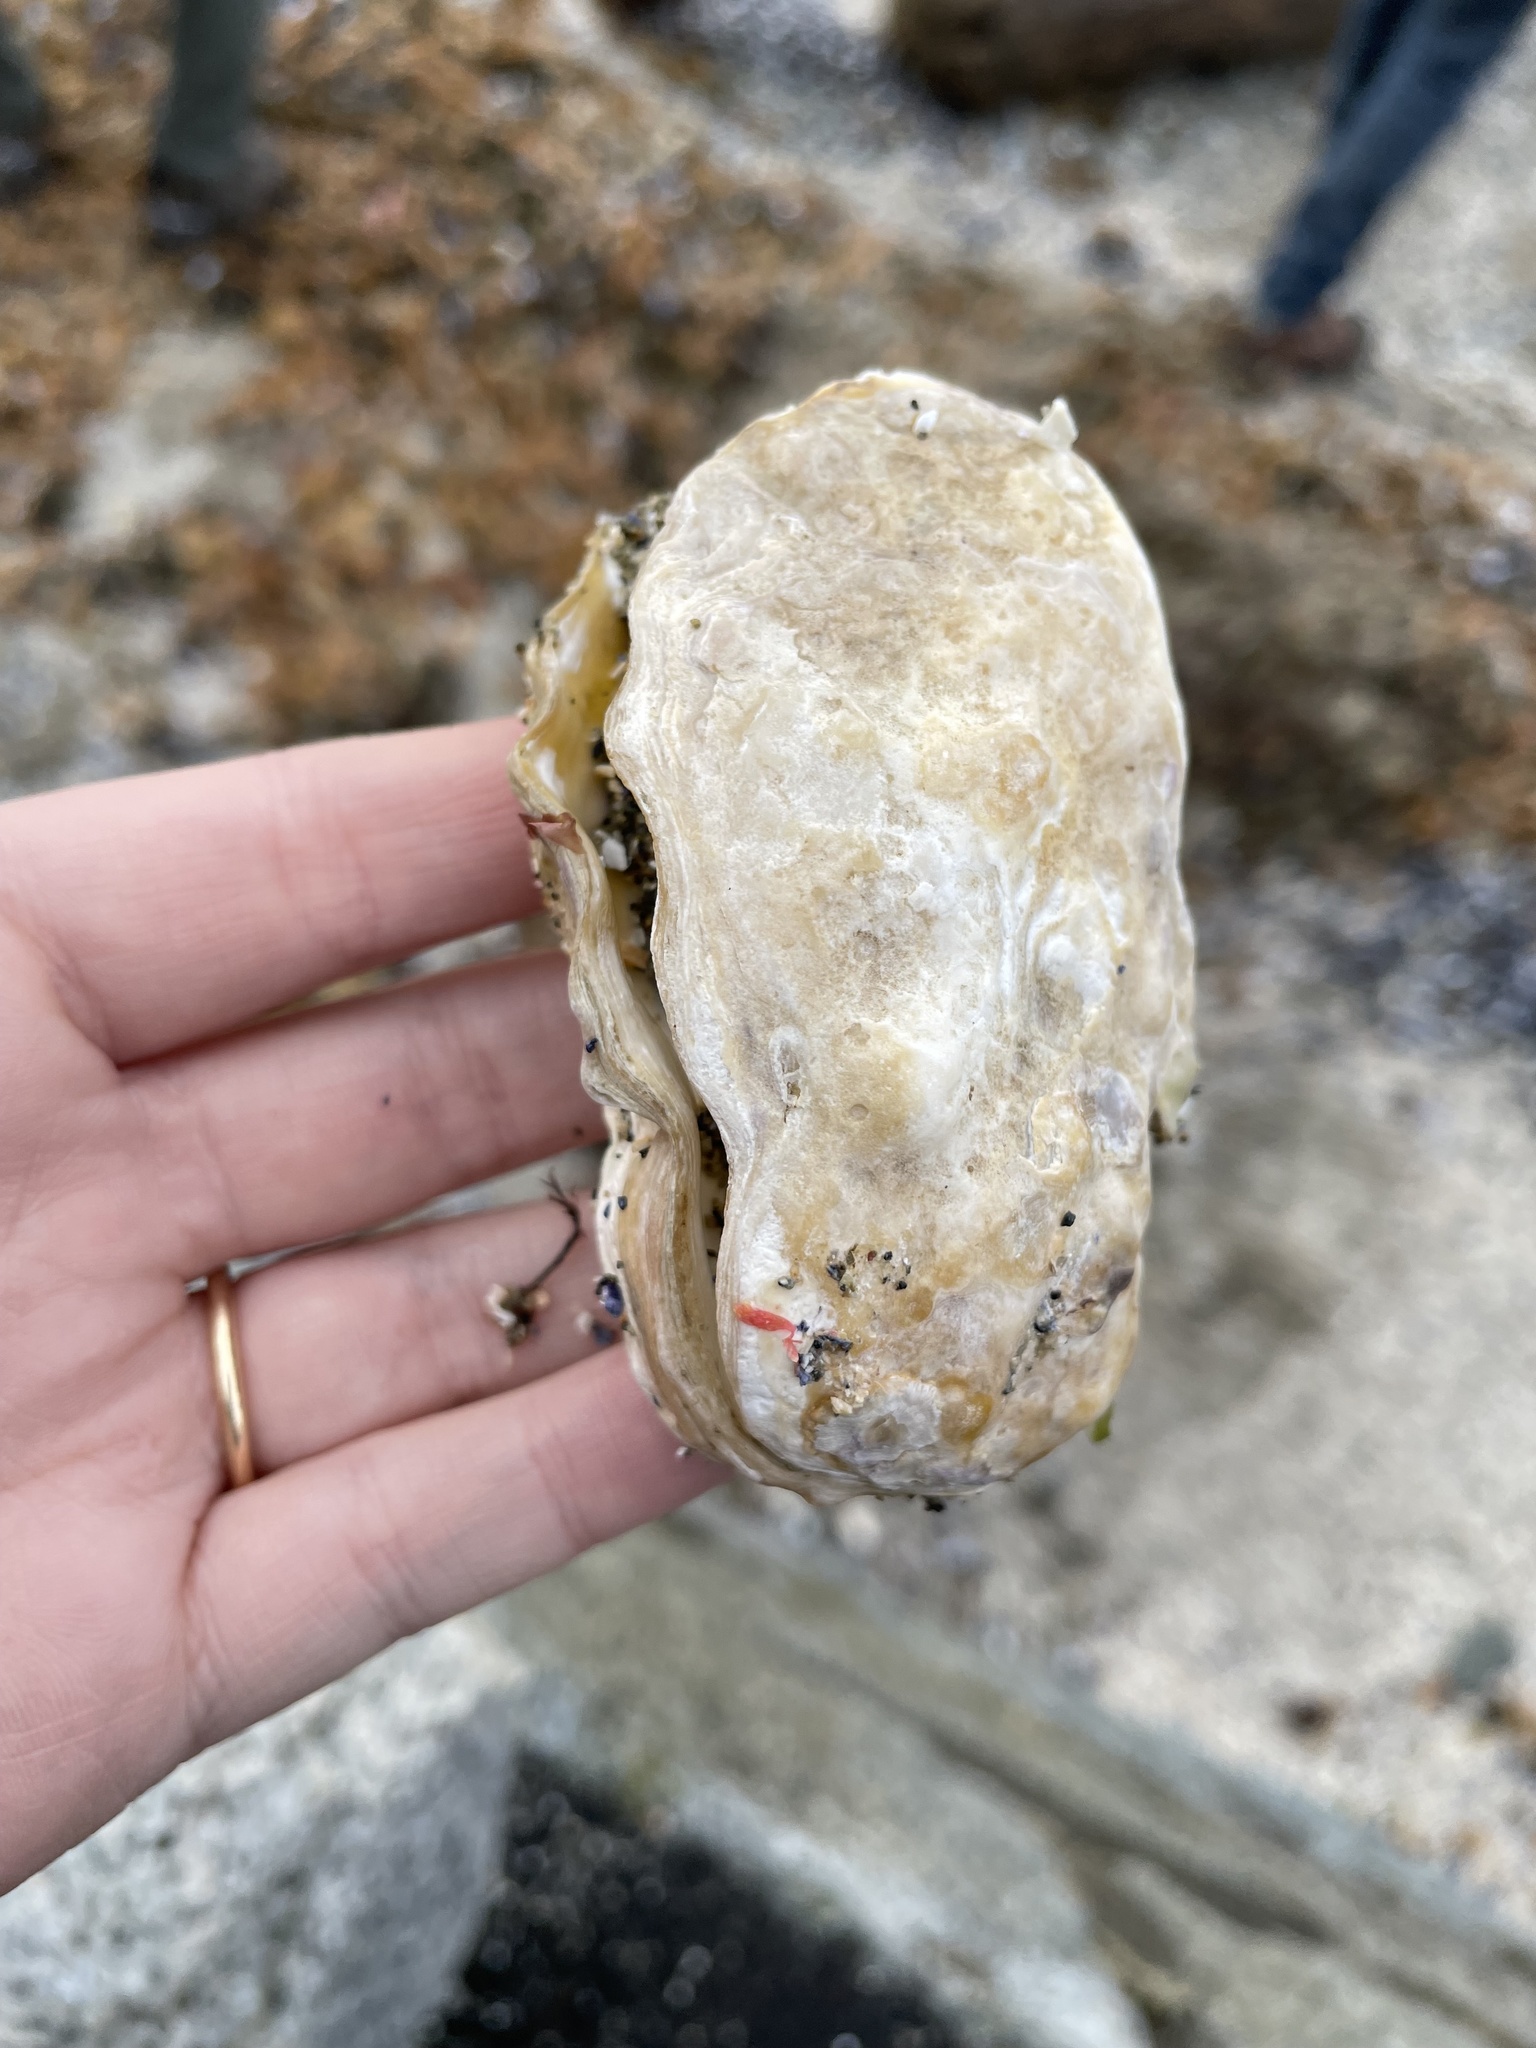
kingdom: Animalia
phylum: Mollusca
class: Bivalvia
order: Ostreida
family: Ostreidae
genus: Magallana
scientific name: Magallana gigas
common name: Pacific oyster
